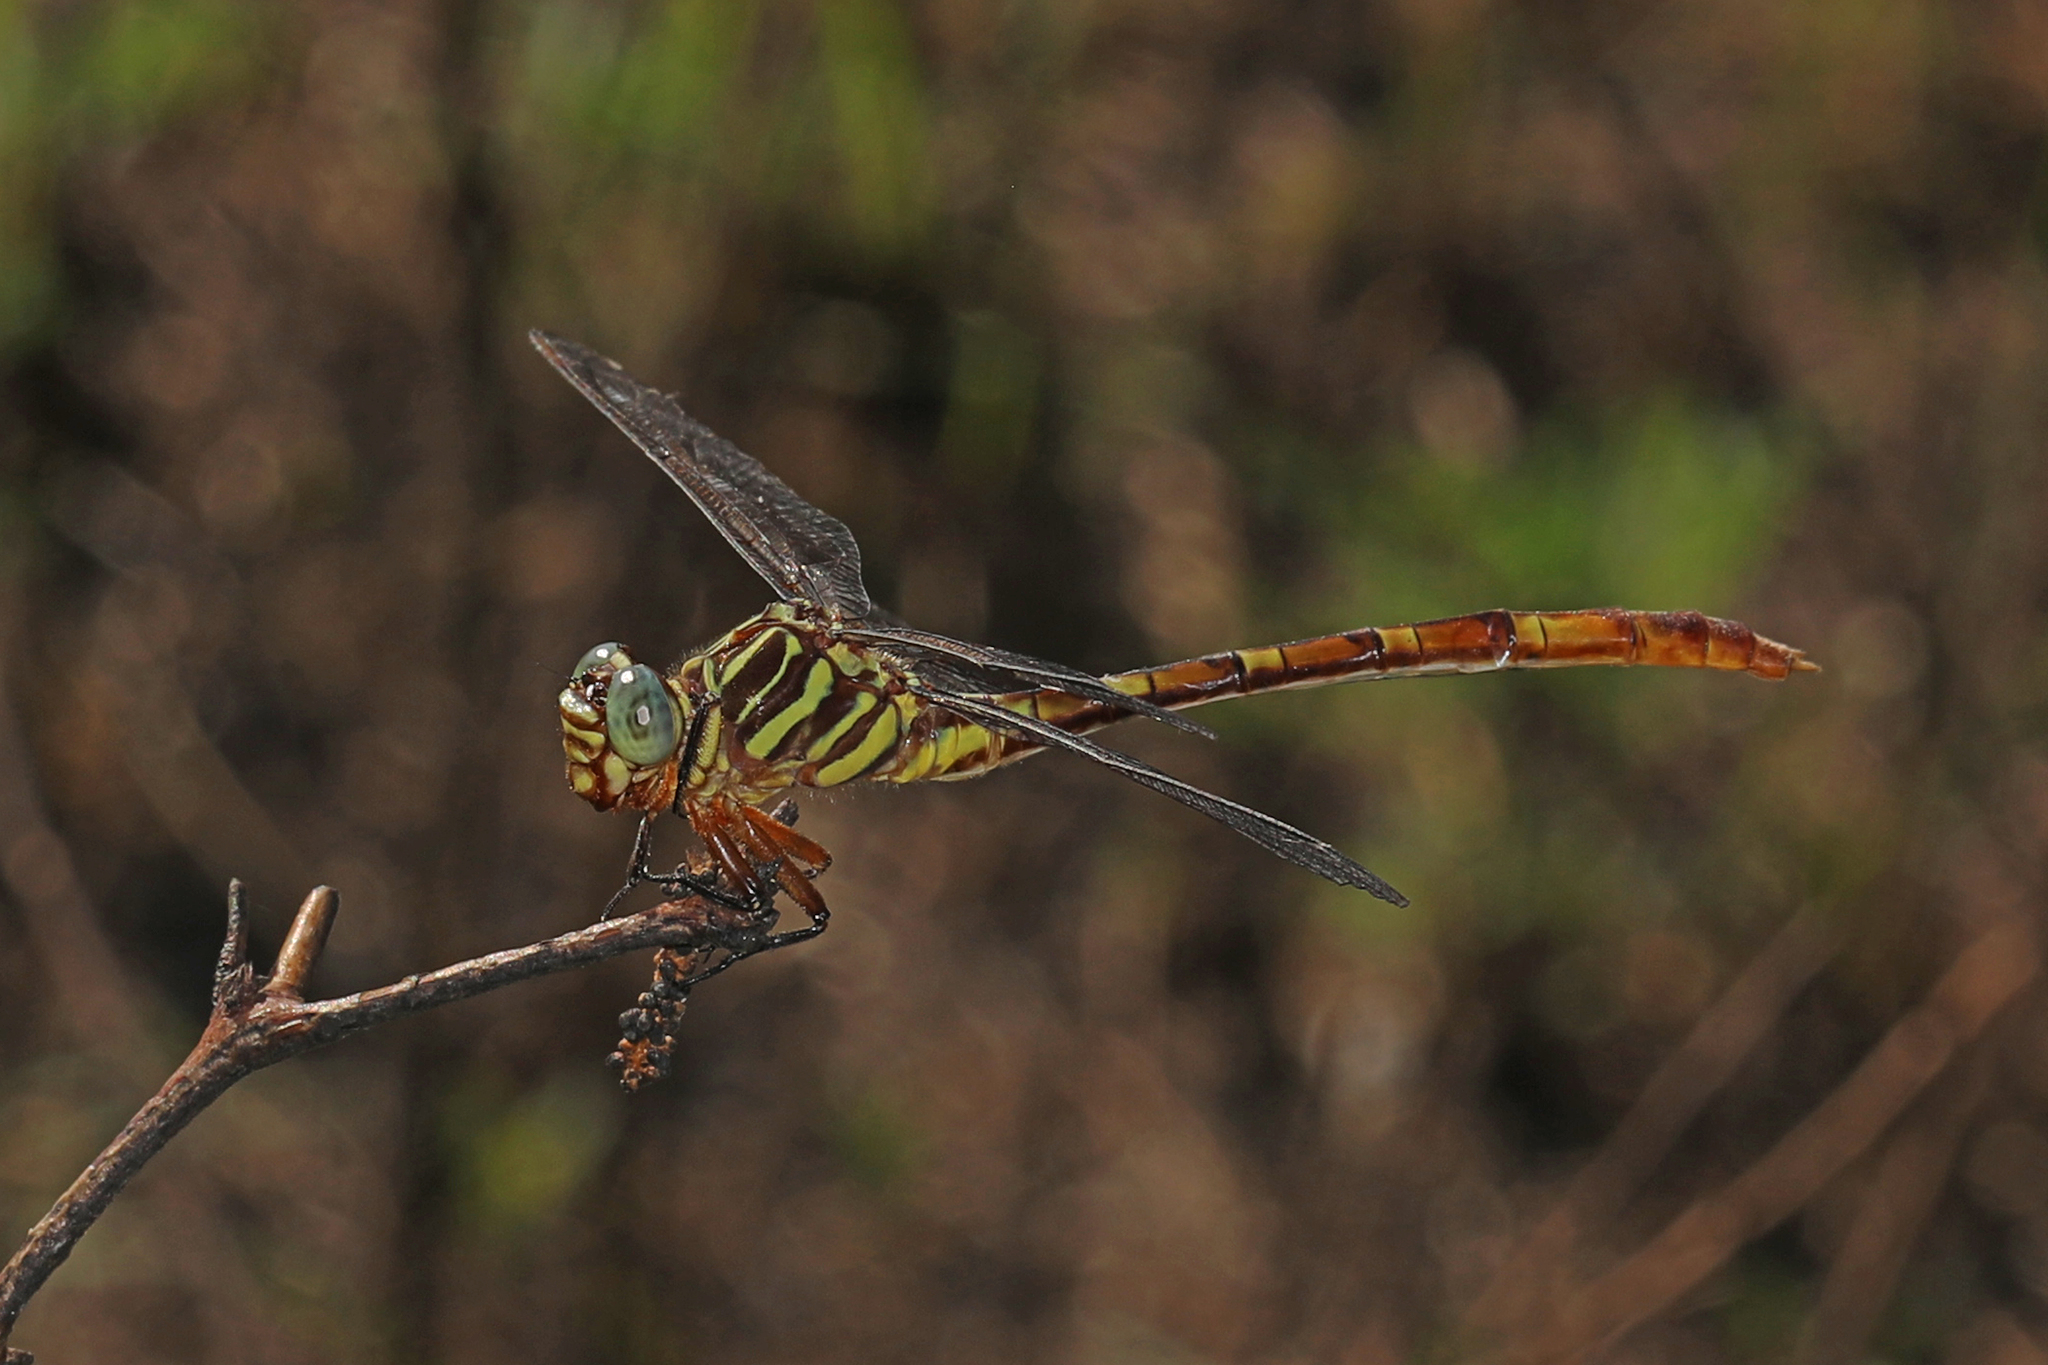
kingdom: Animalia
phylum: Arthropoda
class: Insecta
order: Odonata
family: Gomphidae
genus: Aphylla
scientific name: Aphylla angustifolia
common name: Broad-striped forceptail
